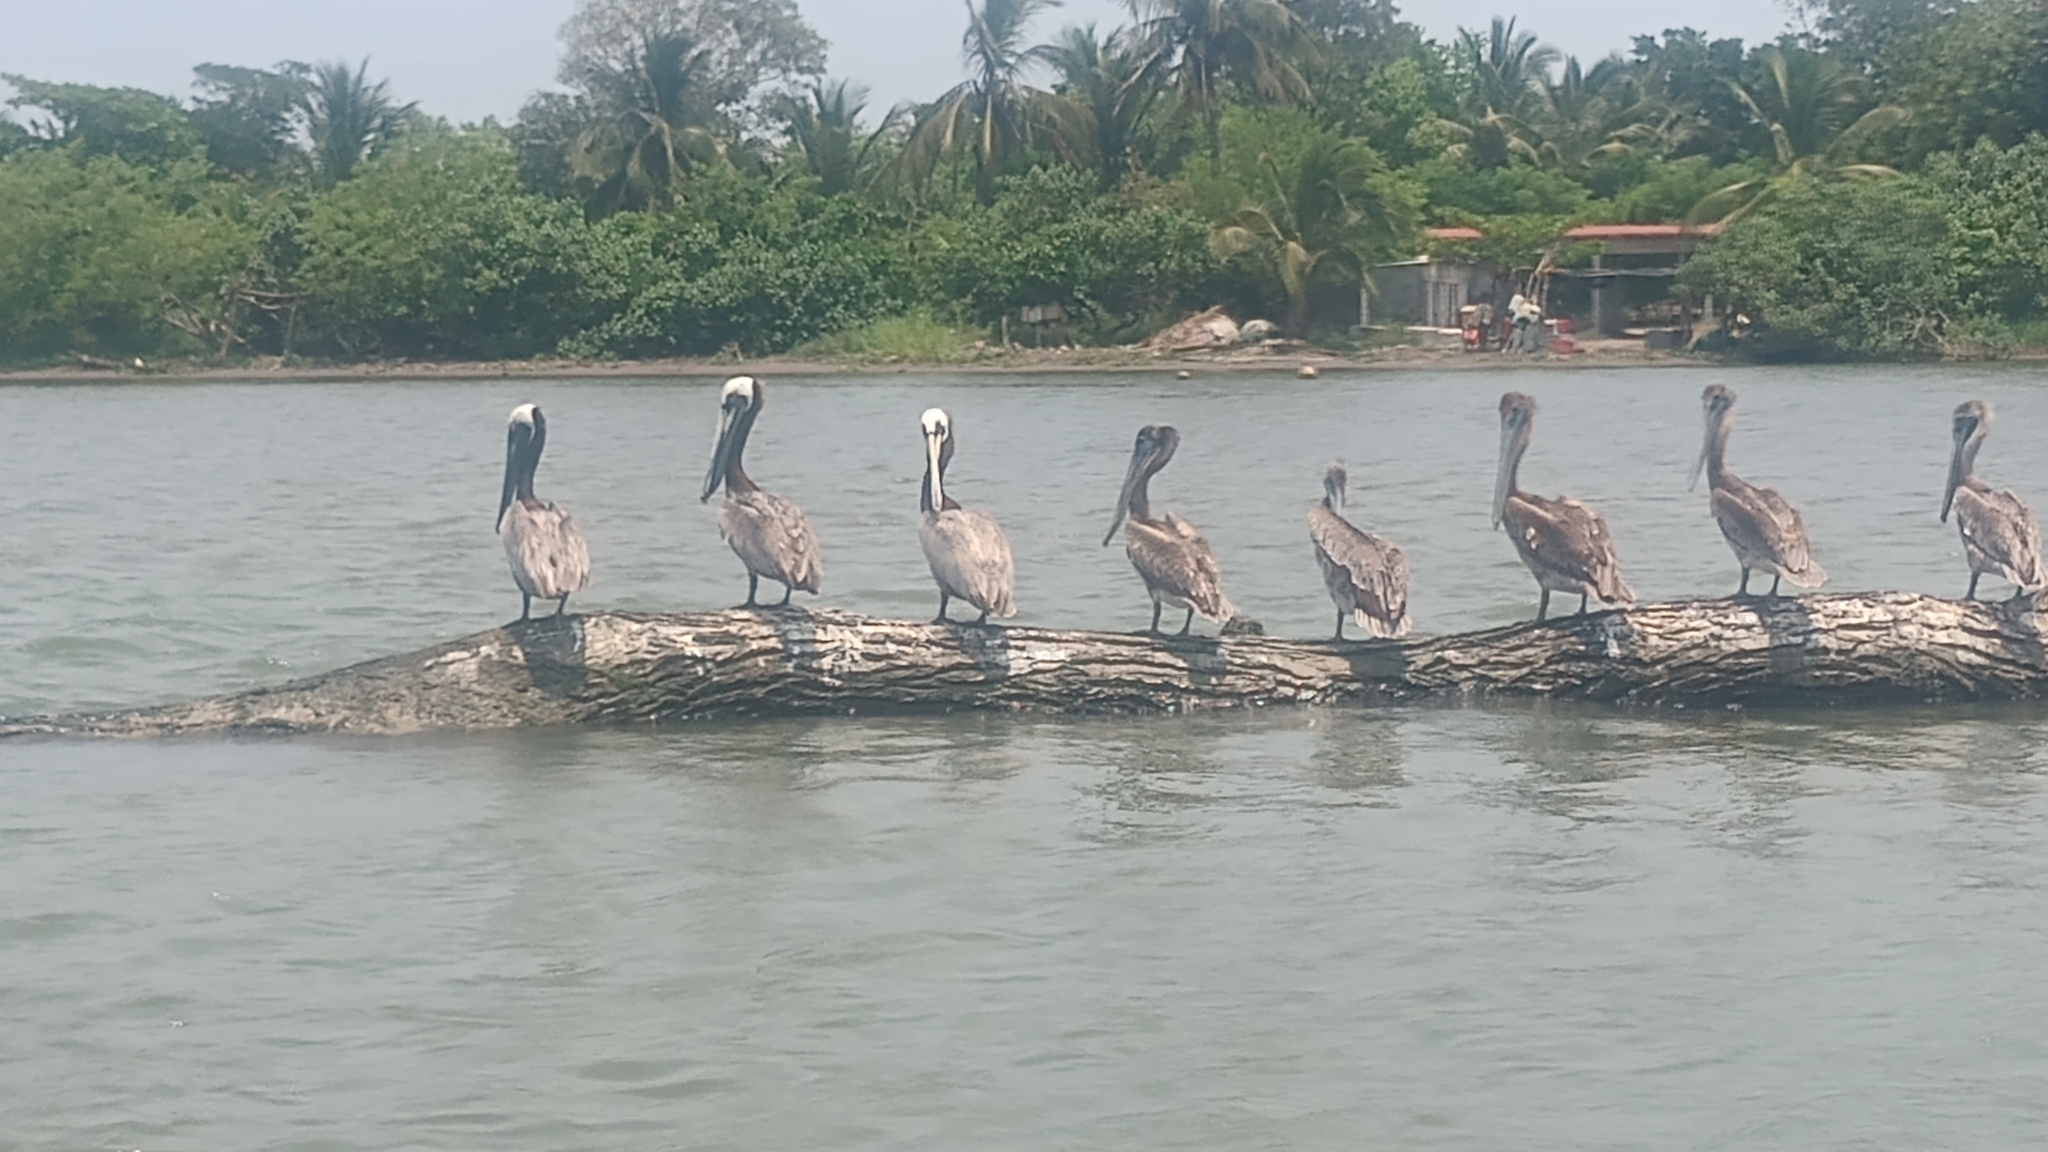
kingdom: Animalia
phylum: Chordata
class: Aves
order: Pelecaniformes
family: Pelecanidae
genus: Pelecanus
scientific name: Pelecanus occidentalis
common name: Brown pelican
